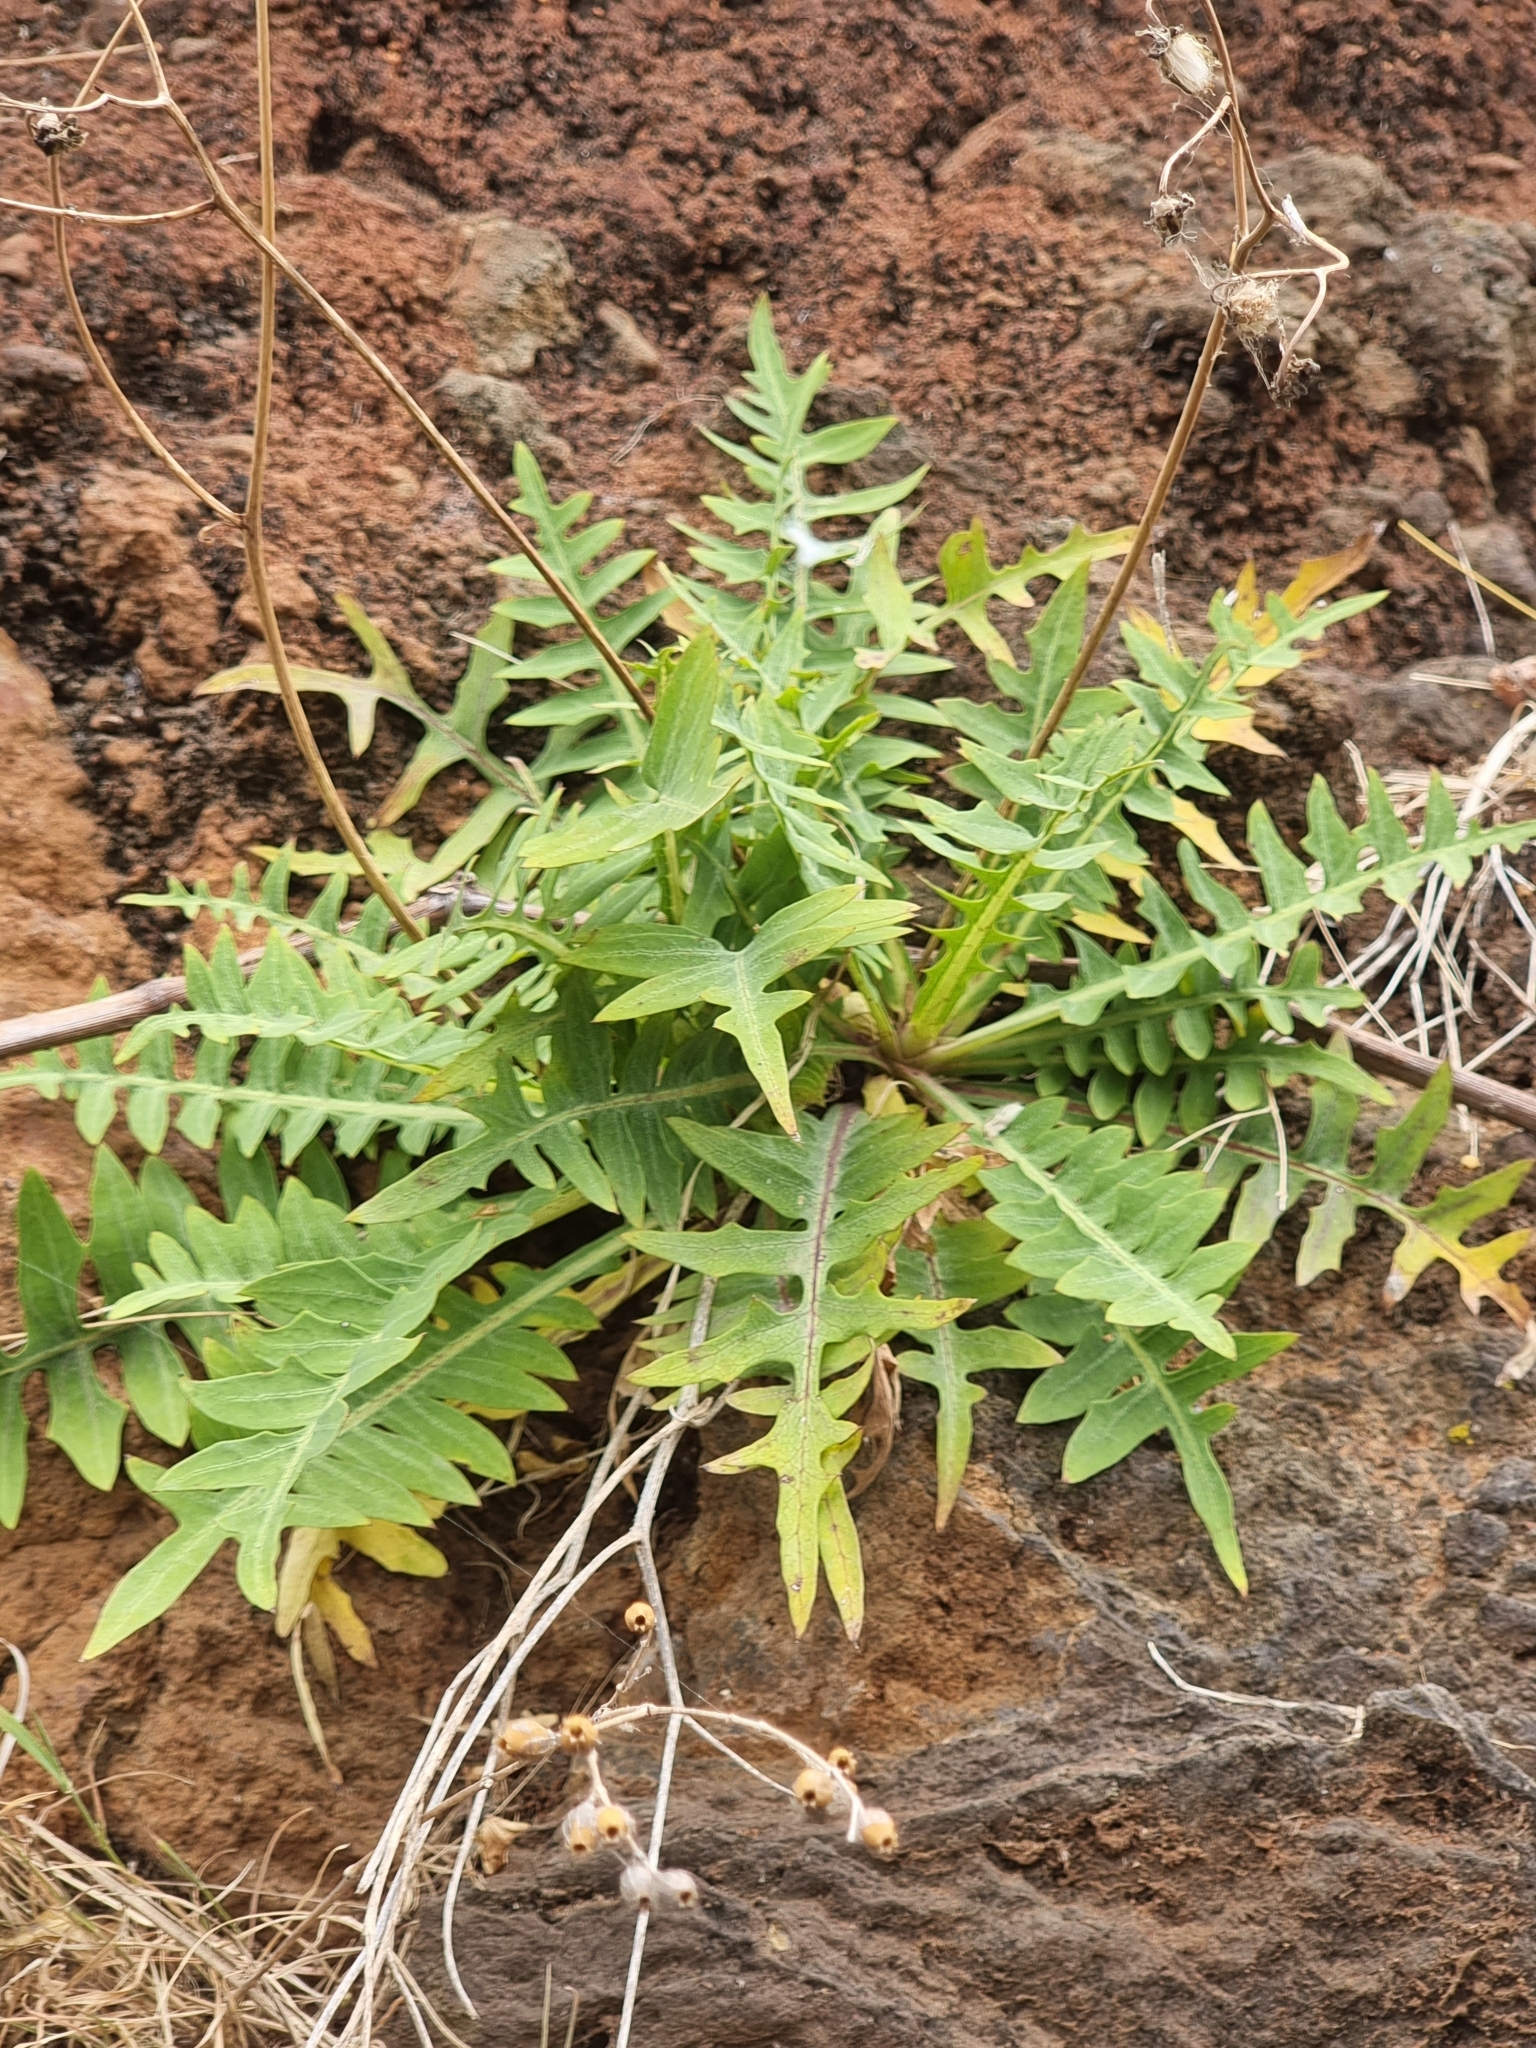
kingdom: Plantae
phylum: Tracheophyta
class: Magnoliopsida
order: Asterales
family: Asteraceae
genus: Sonchus
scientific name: Sonchus ustulatus
